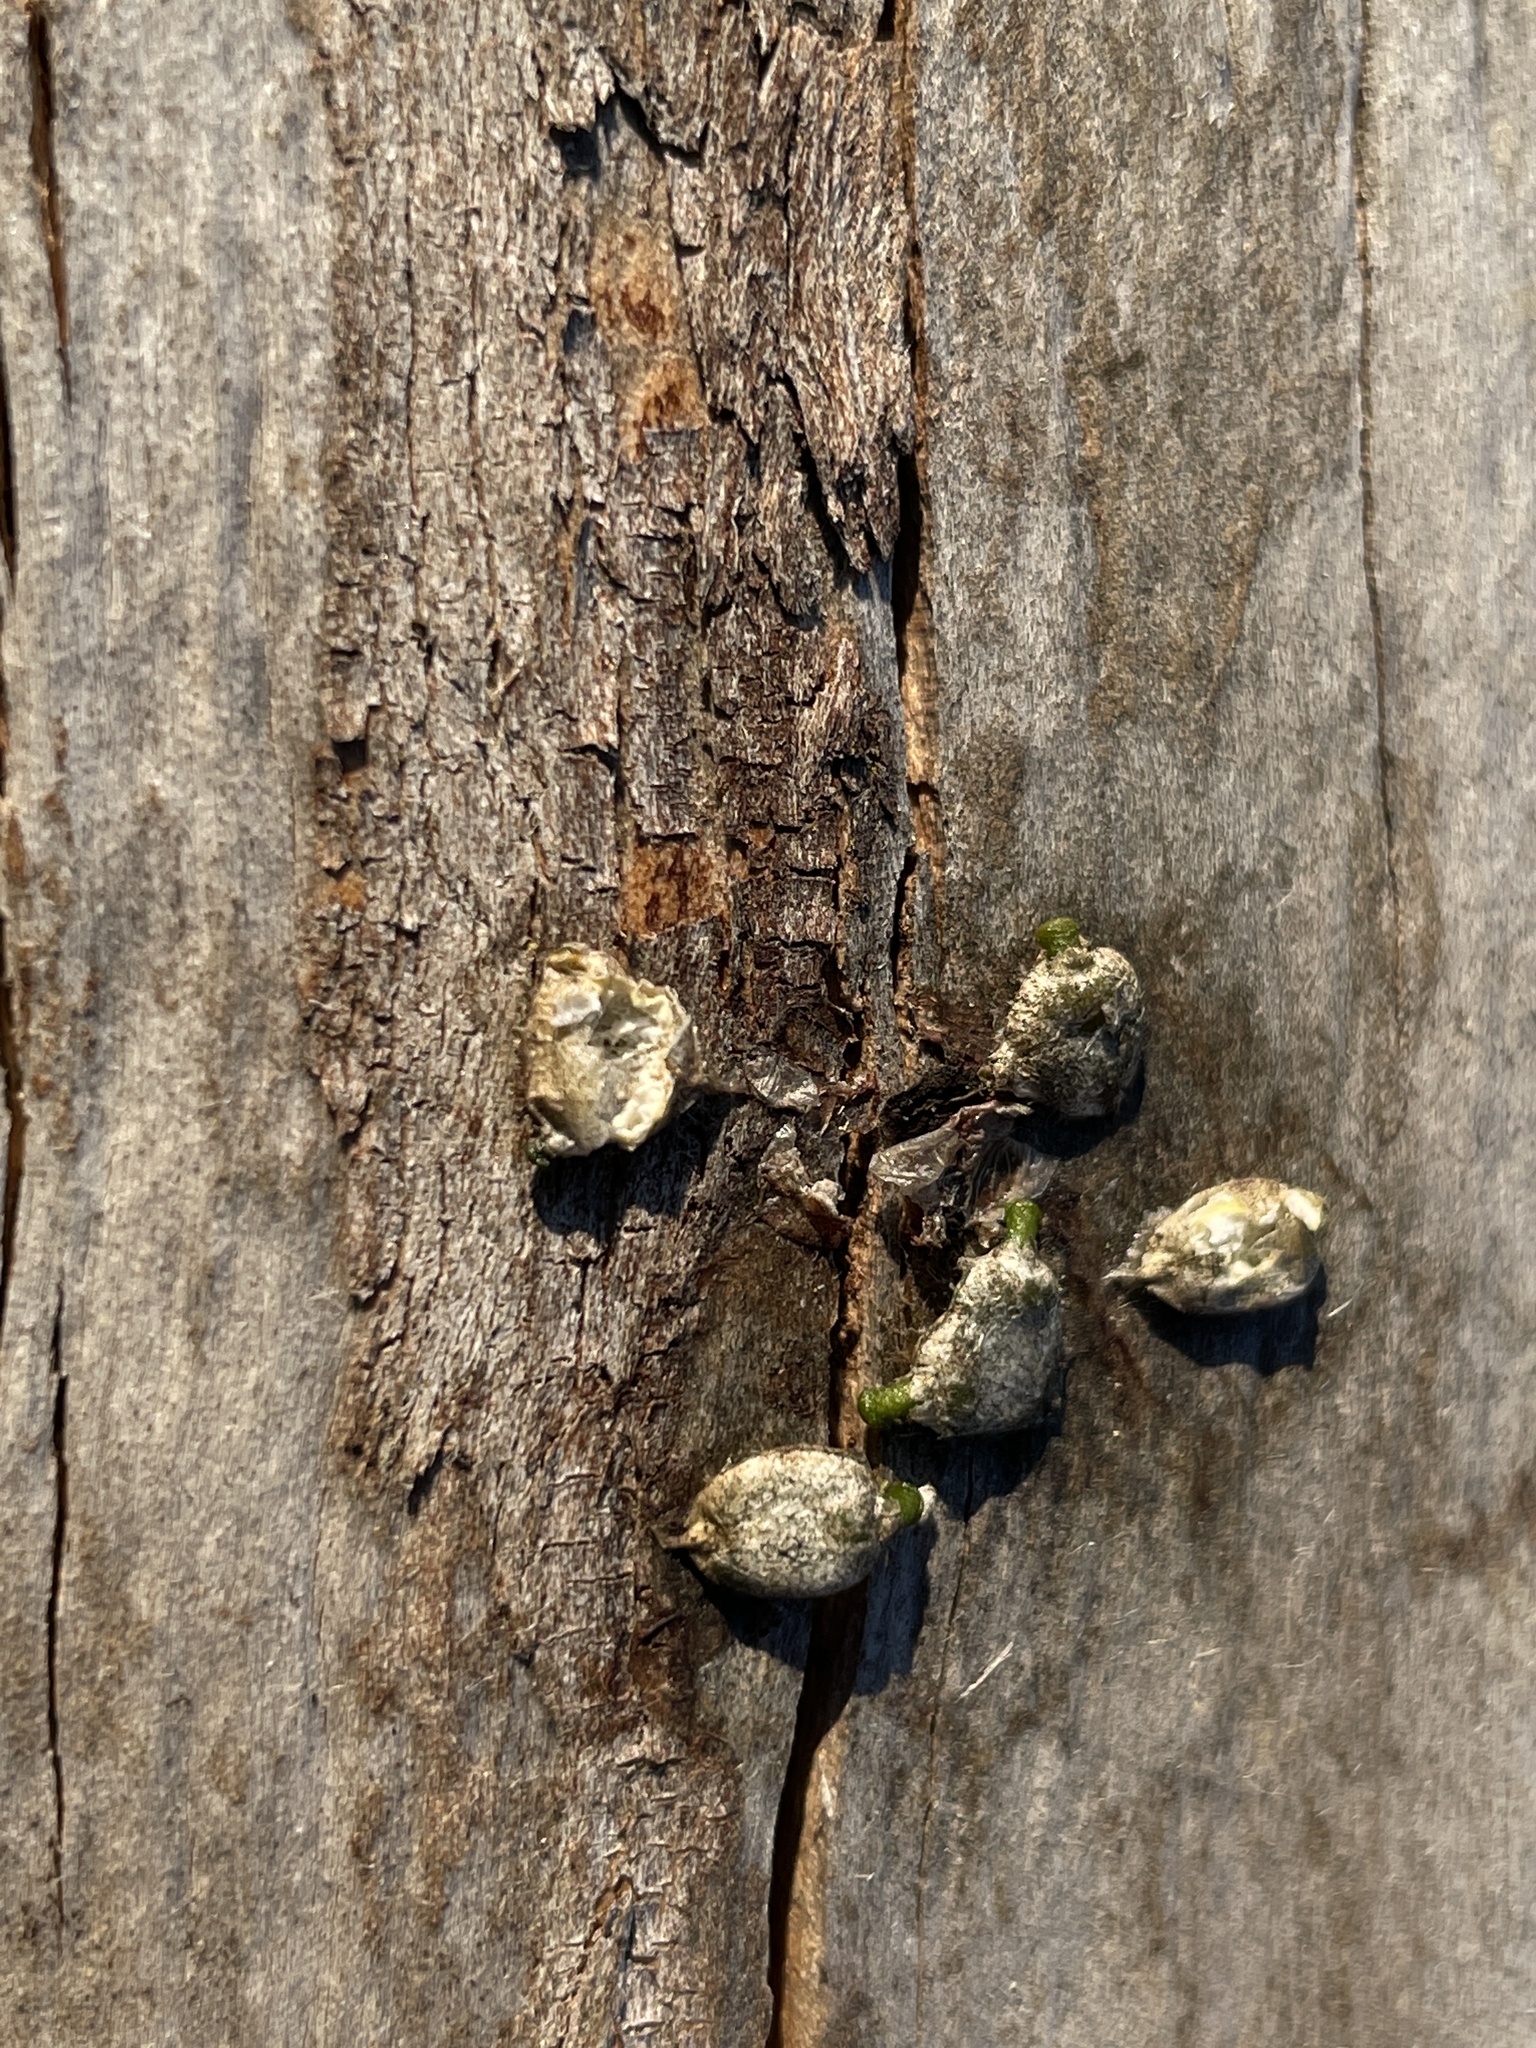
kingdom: Plantae
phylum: Tracheophyta
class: Magnoliopsida
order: Santalales
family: Viscaceae
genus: Viscum
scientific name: Viscum album
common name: Mistletoe
